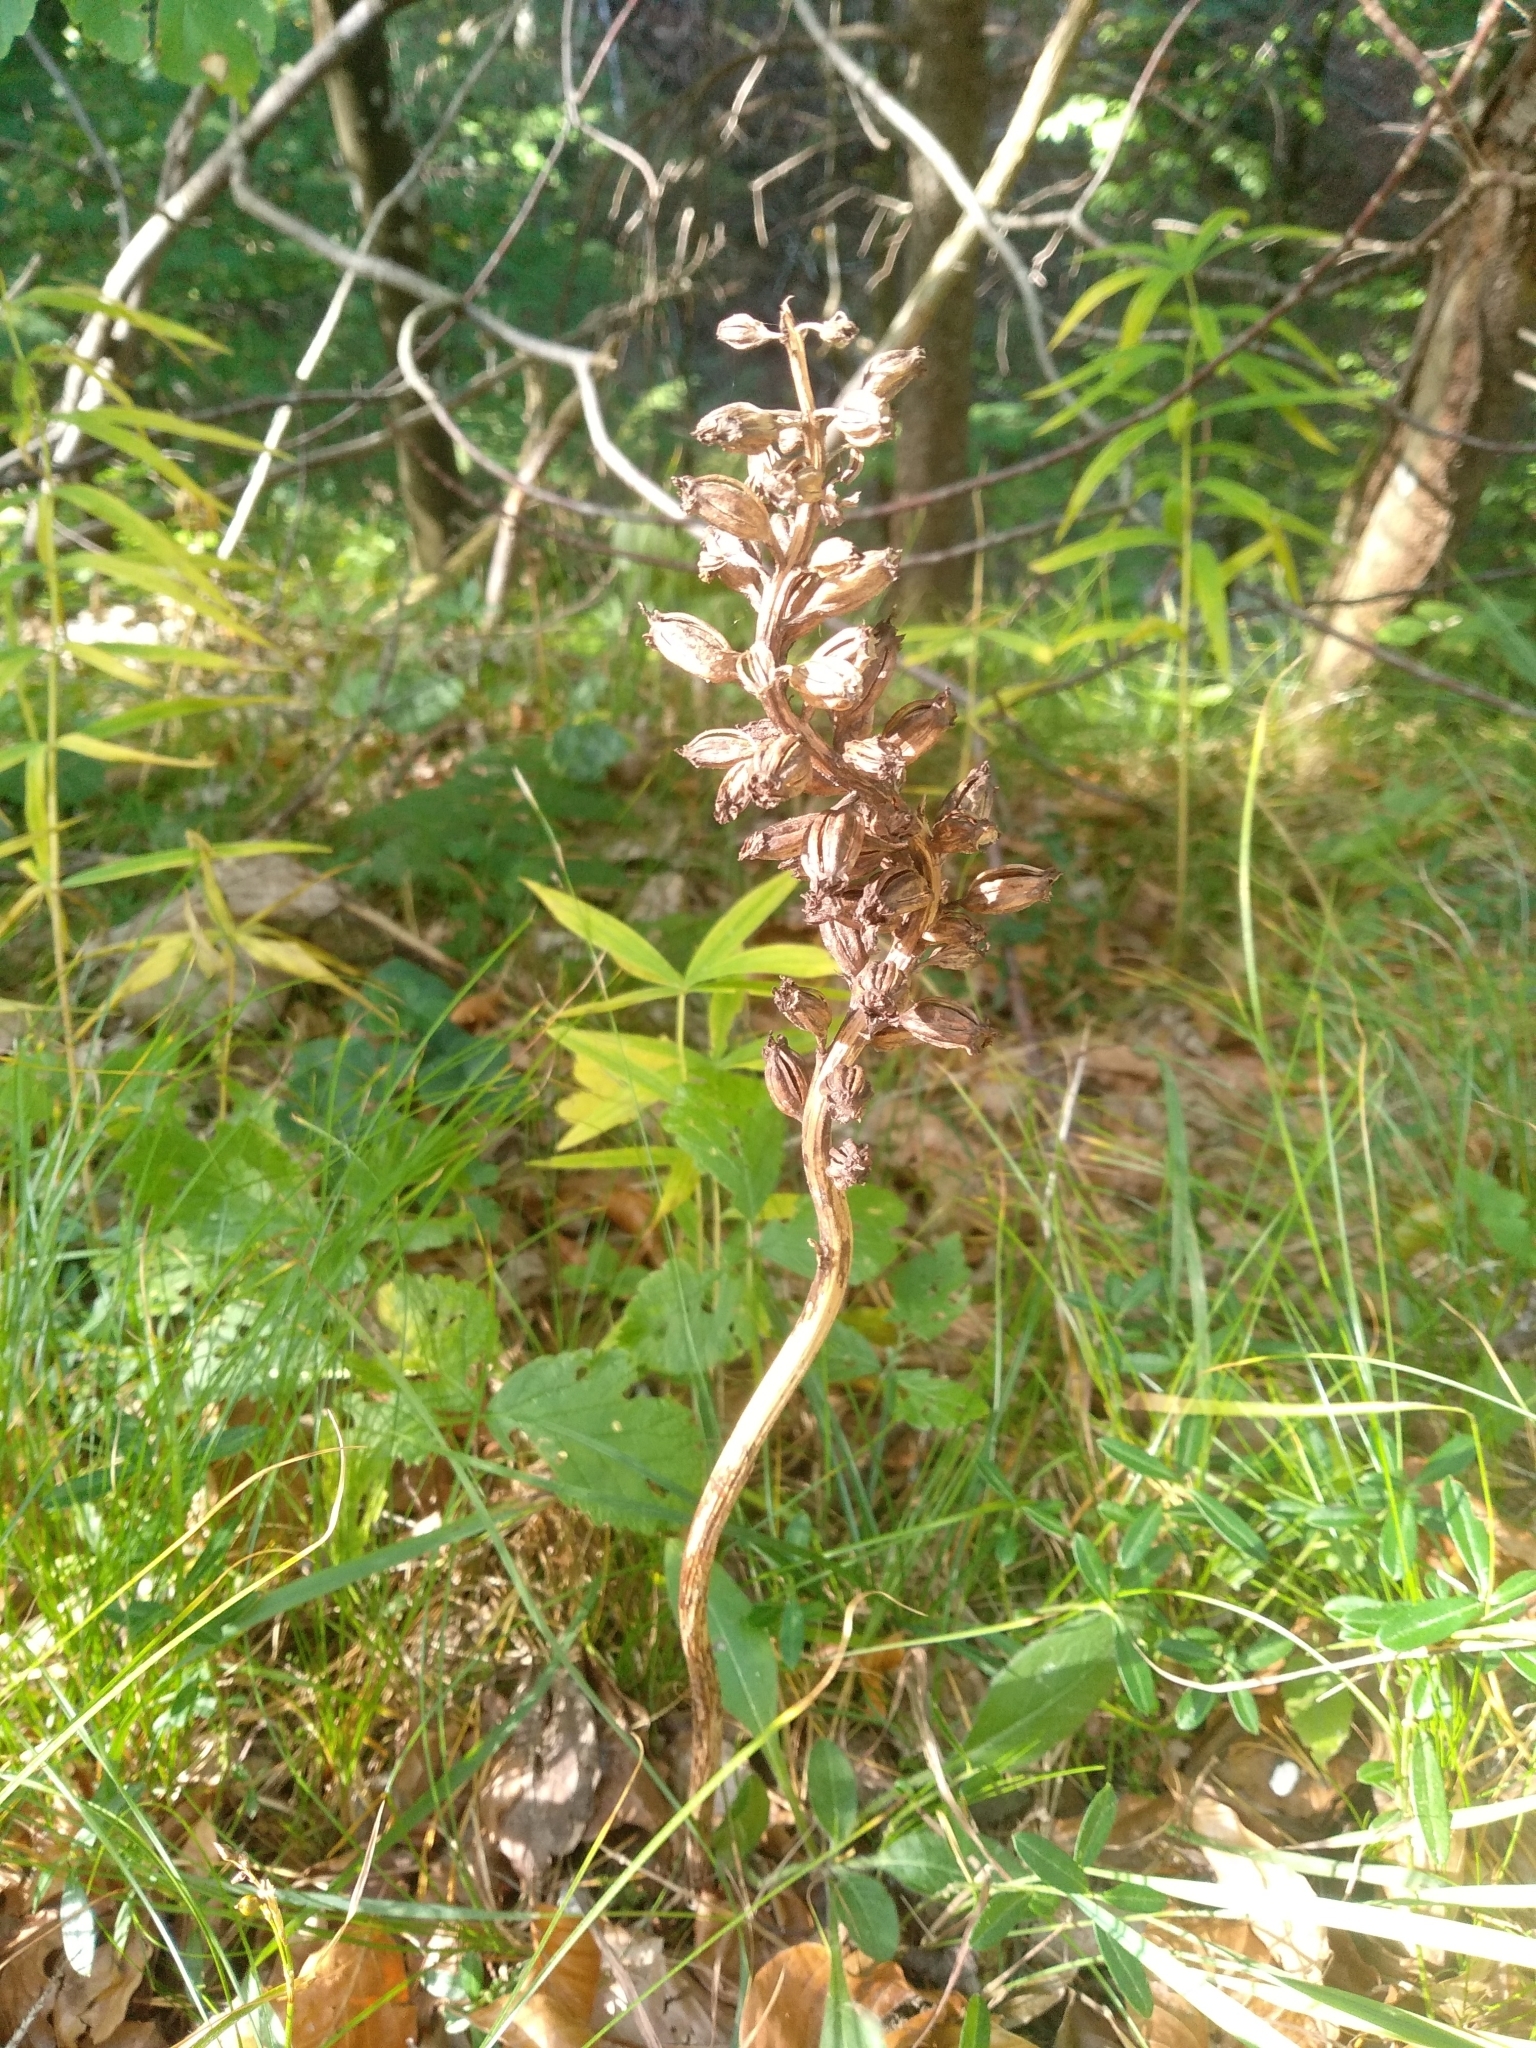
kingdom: Plantae
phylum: Tracheophyta
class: Liliopsida
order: Asparagales
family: Orchidaceae
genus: Neottia
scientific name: Neottia nidus-avis
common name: Bird's-nest orchid
